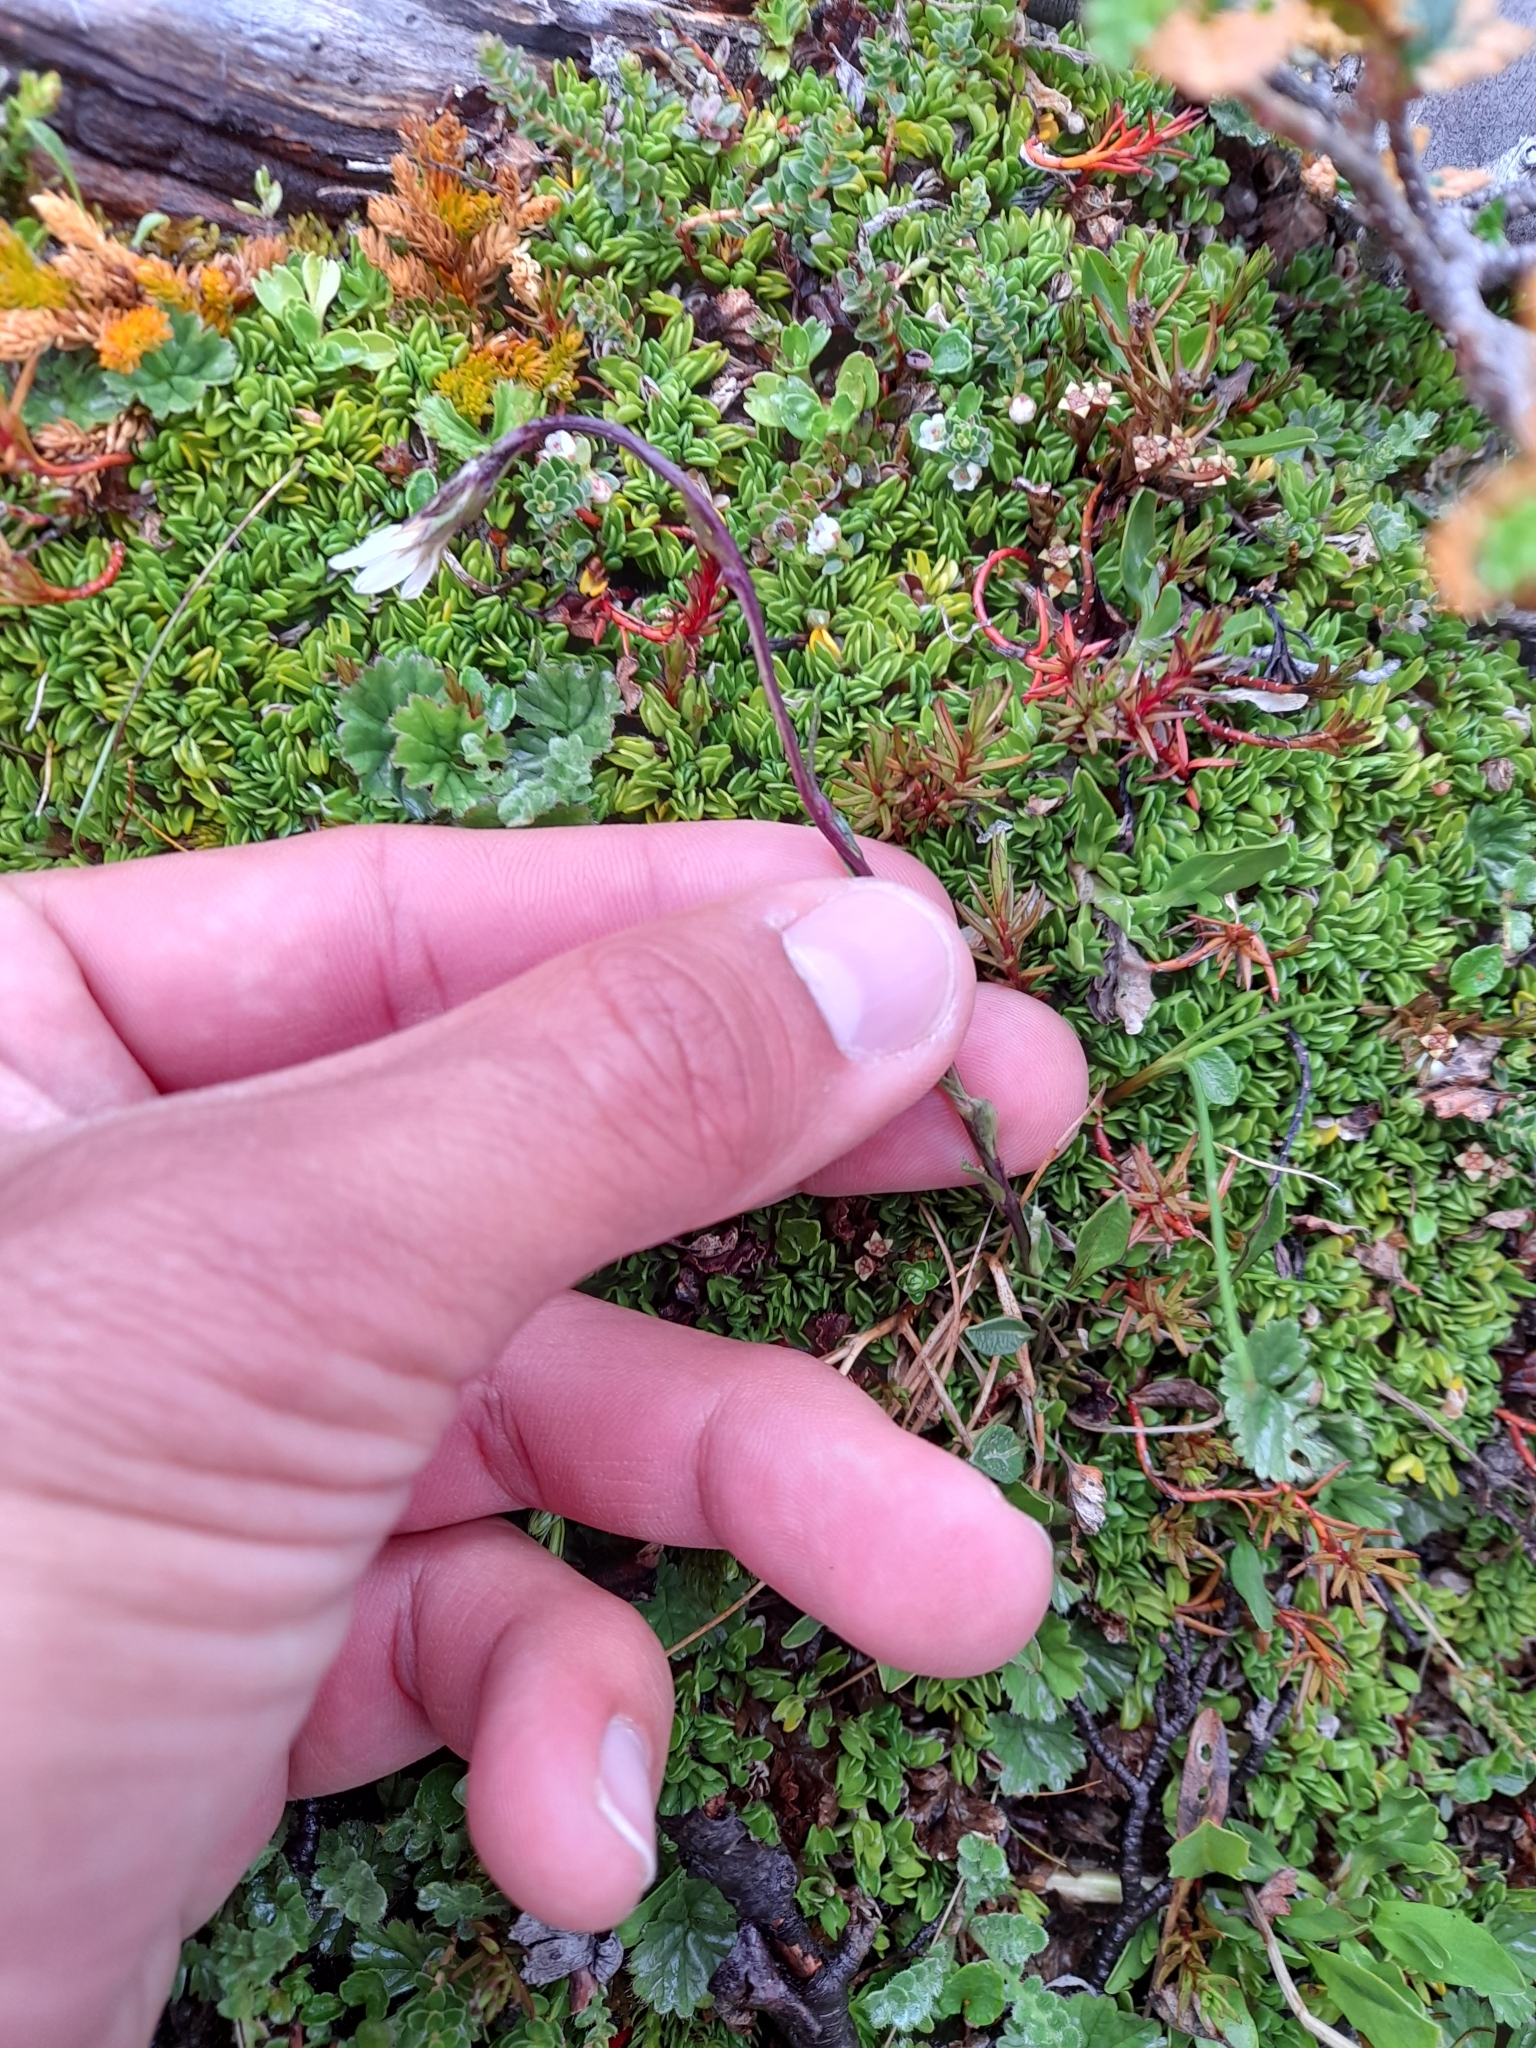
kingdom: Plantae
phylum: Tracheophyta
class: Magnoliopsida
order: Asterales
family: Asteraceae
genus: Perezia
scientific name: Perezia lactucoides
